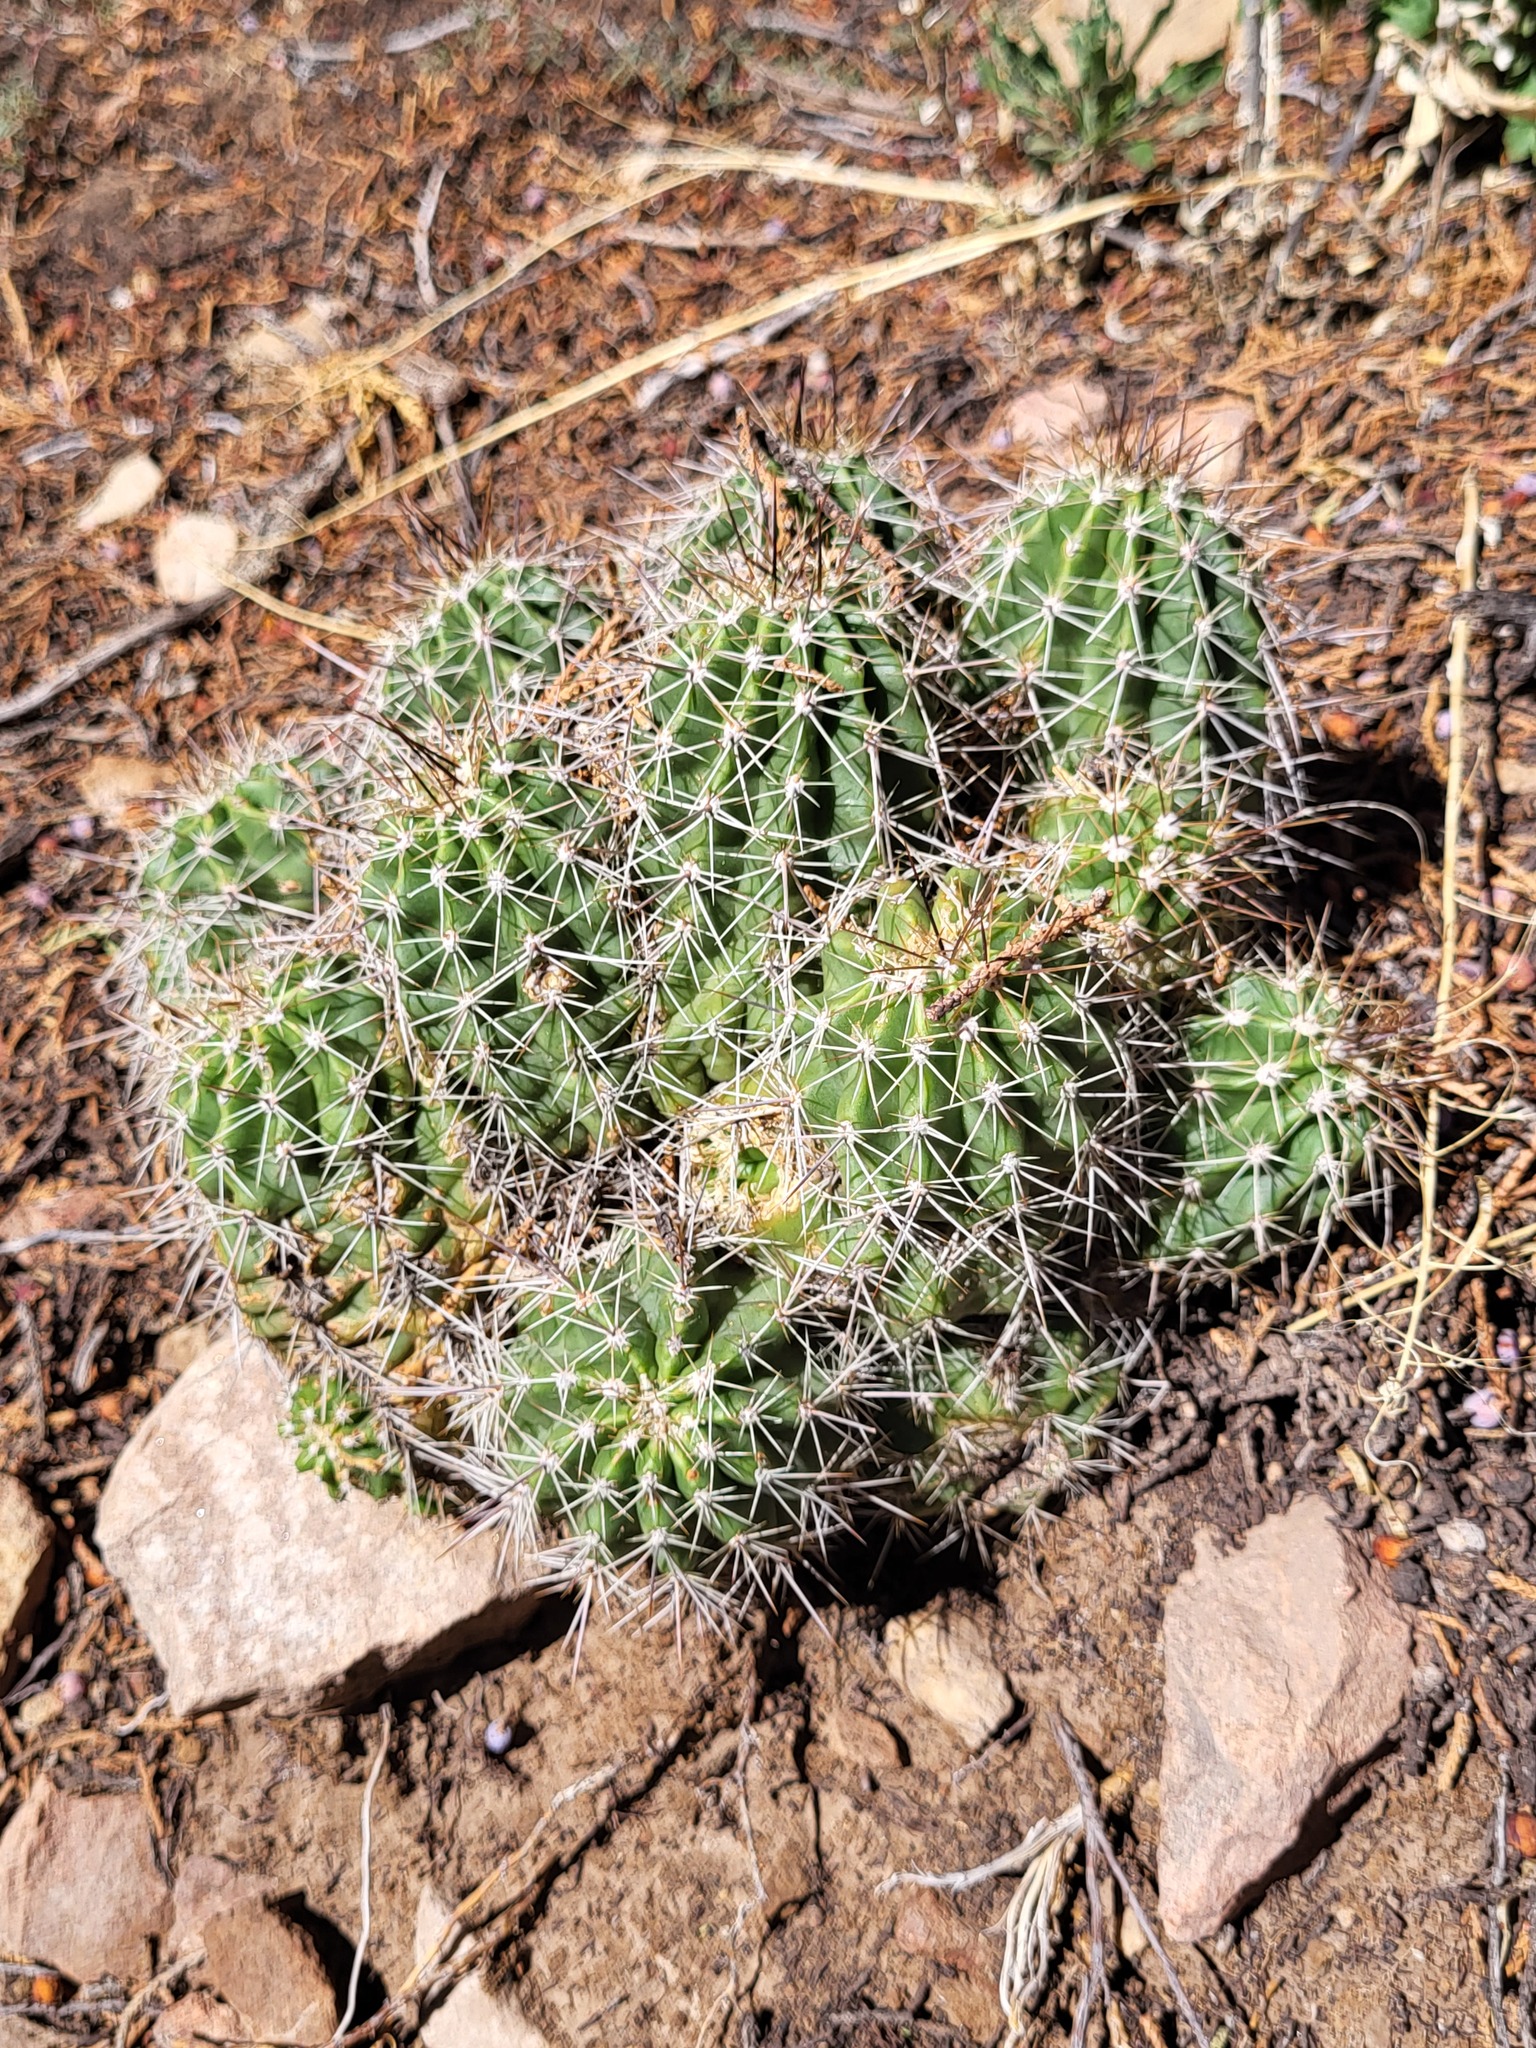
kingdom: Plantae
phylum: Tracheophyta
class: Magnoliopsida
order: Caryophyllales
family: Cactaceae
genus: Echinocereus
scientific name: Echinocereus coccineus
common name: Scarlet hedgehog cactus
